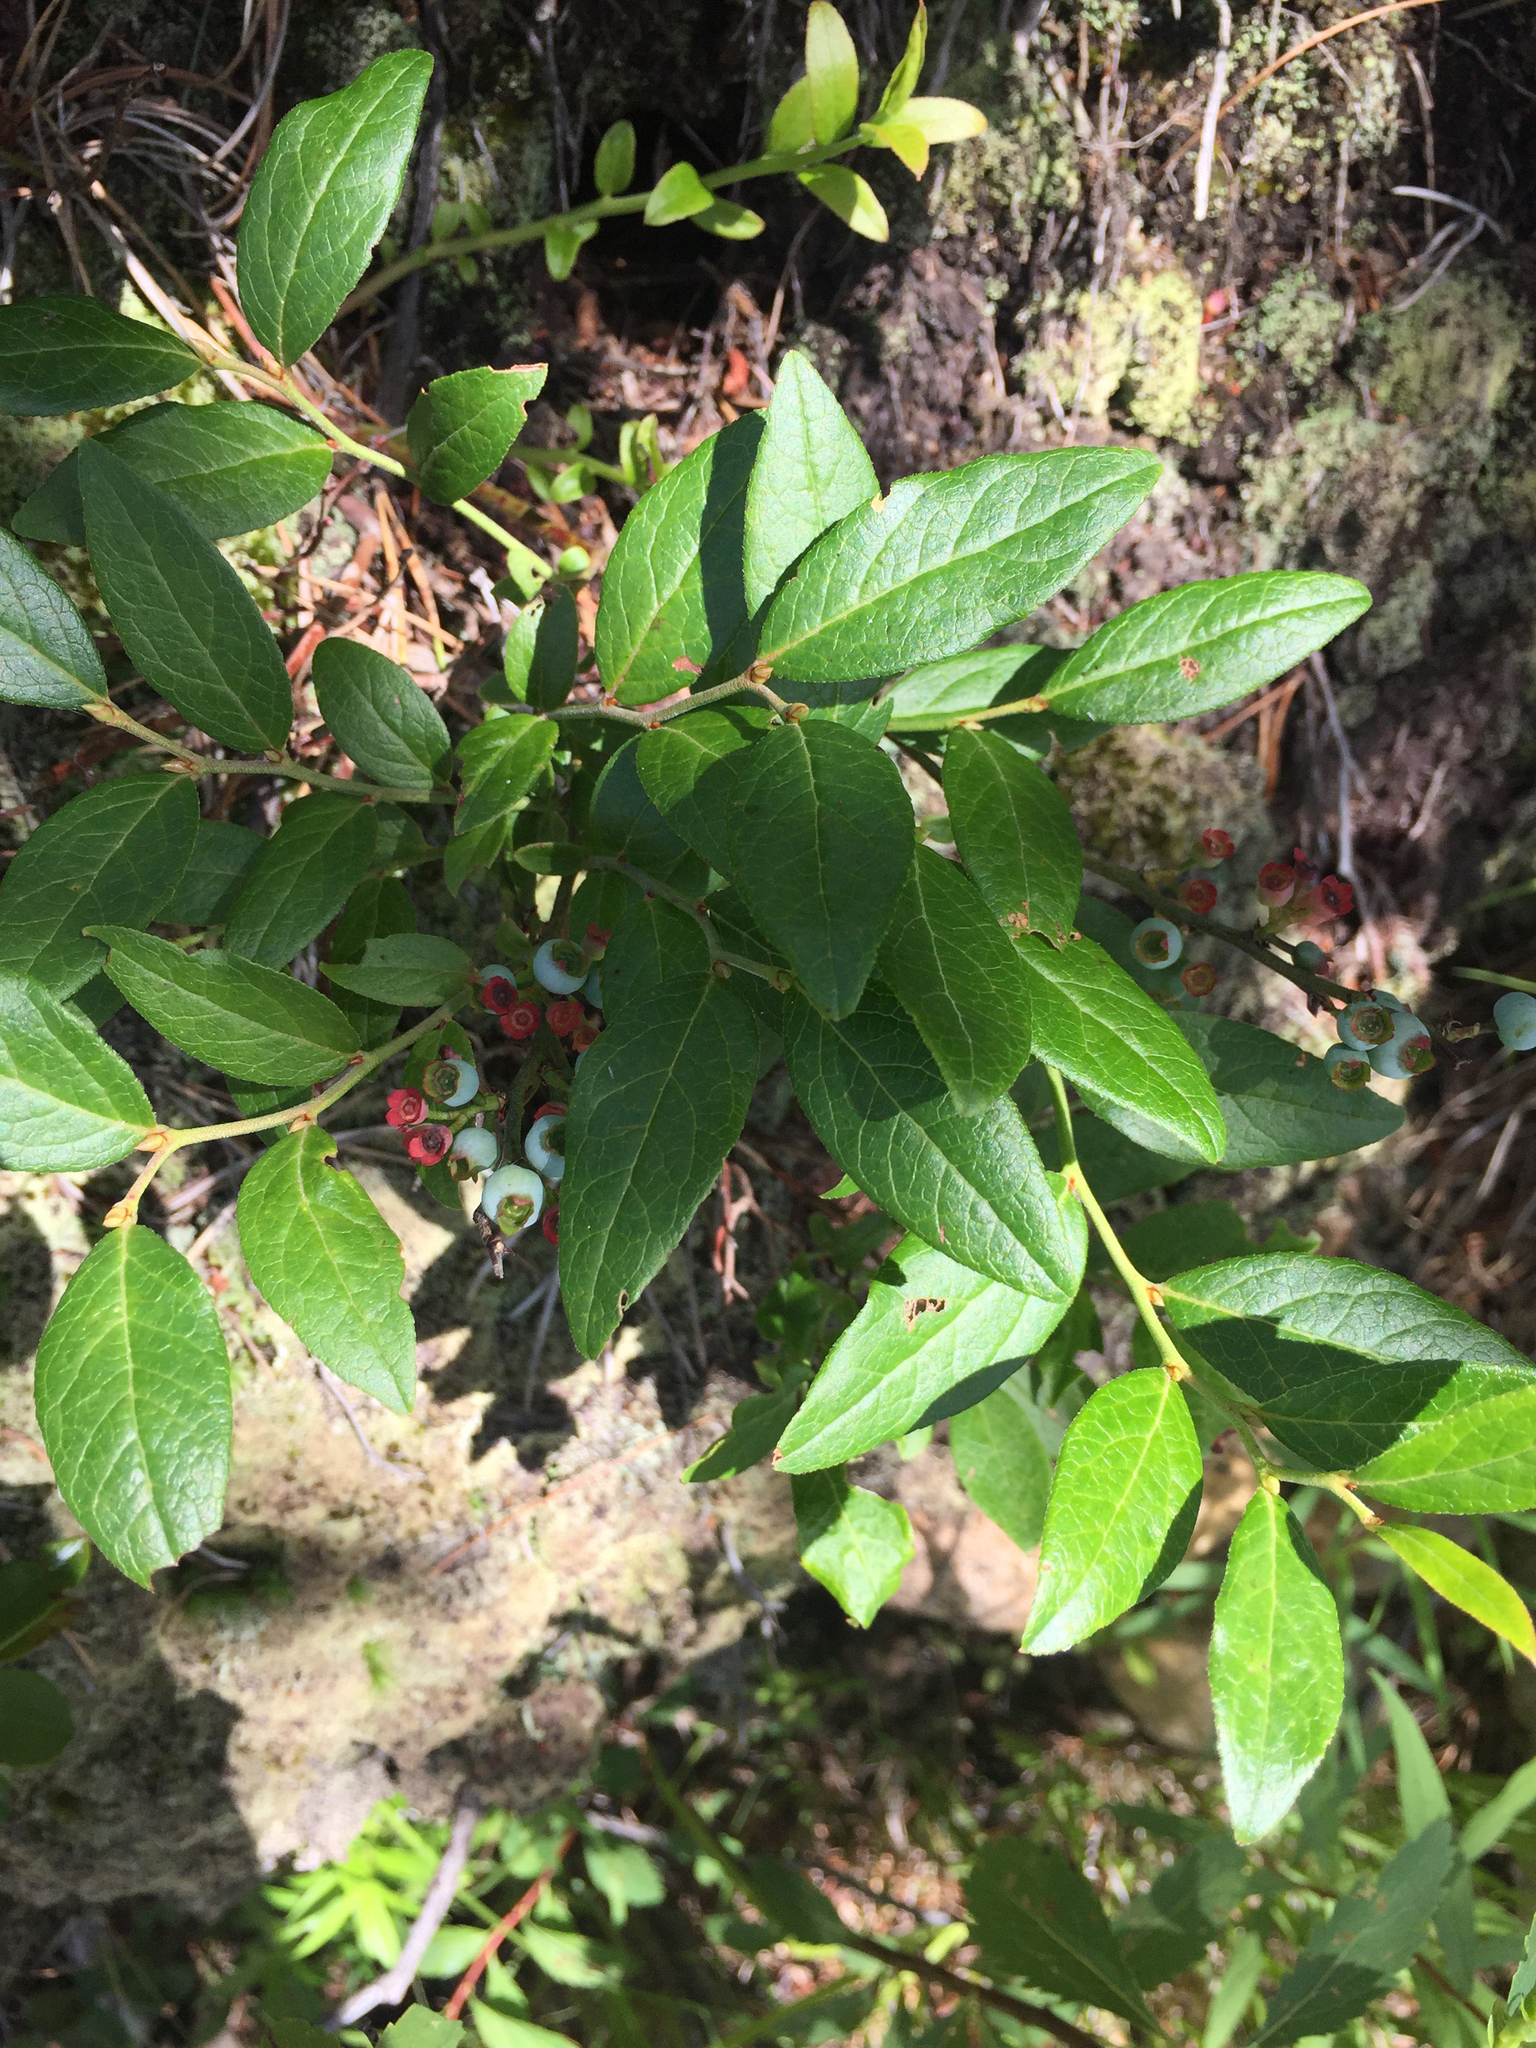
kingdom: Plantae
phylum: Tracheophyta
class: Magnoliopsida
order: Ericales
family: Ericaceae
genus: Vaccinium
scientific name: Vaccinium angustifolium
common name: Early lowbush blueberry
